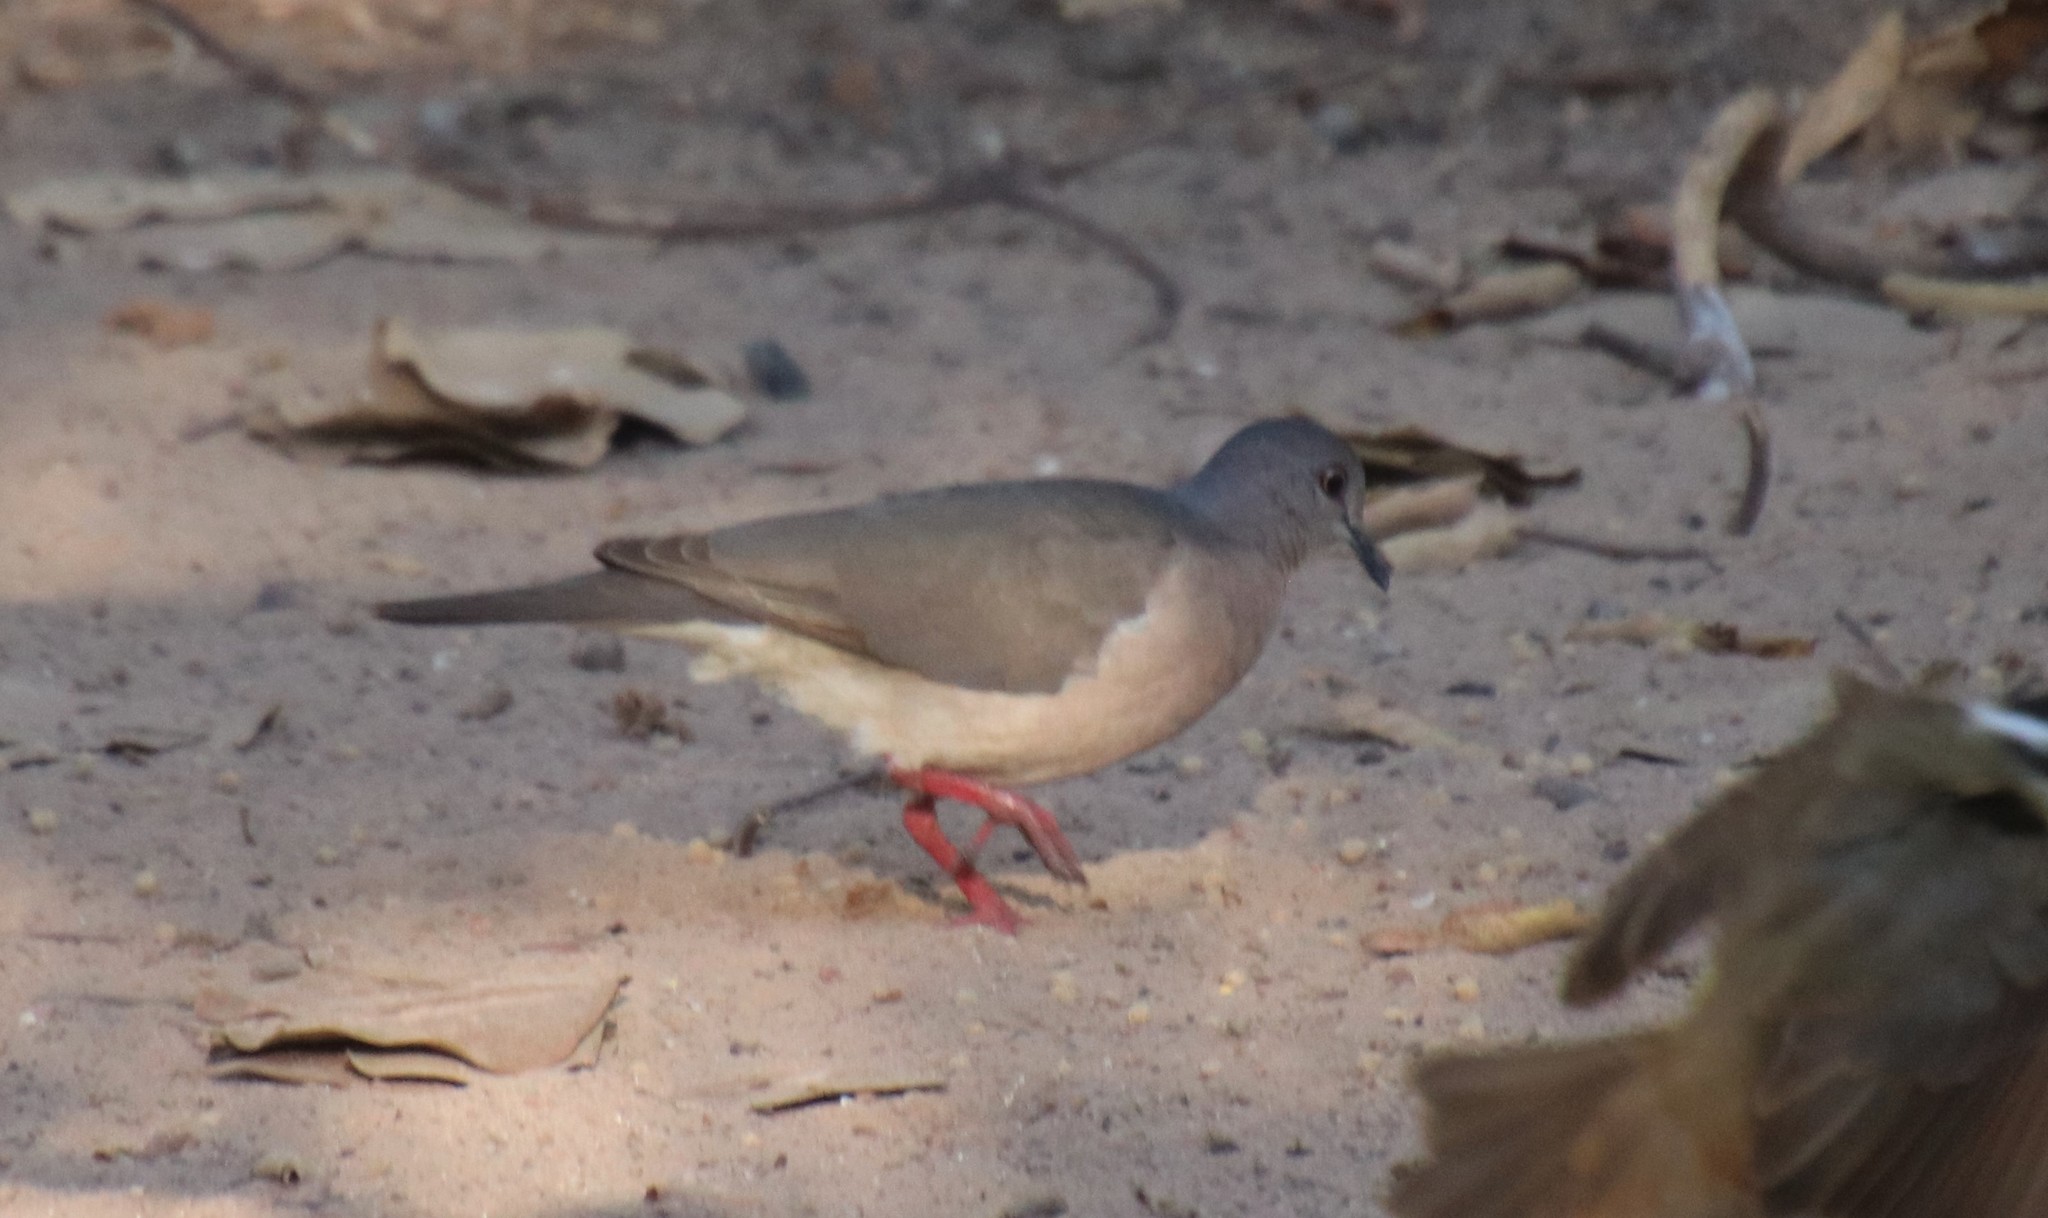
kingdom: Animalia
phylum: Chordata
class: Aves
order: Columbiformes
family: Columbidae
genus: Leptotila
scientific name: Leptotila verreauxi
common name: White-tipped dove
